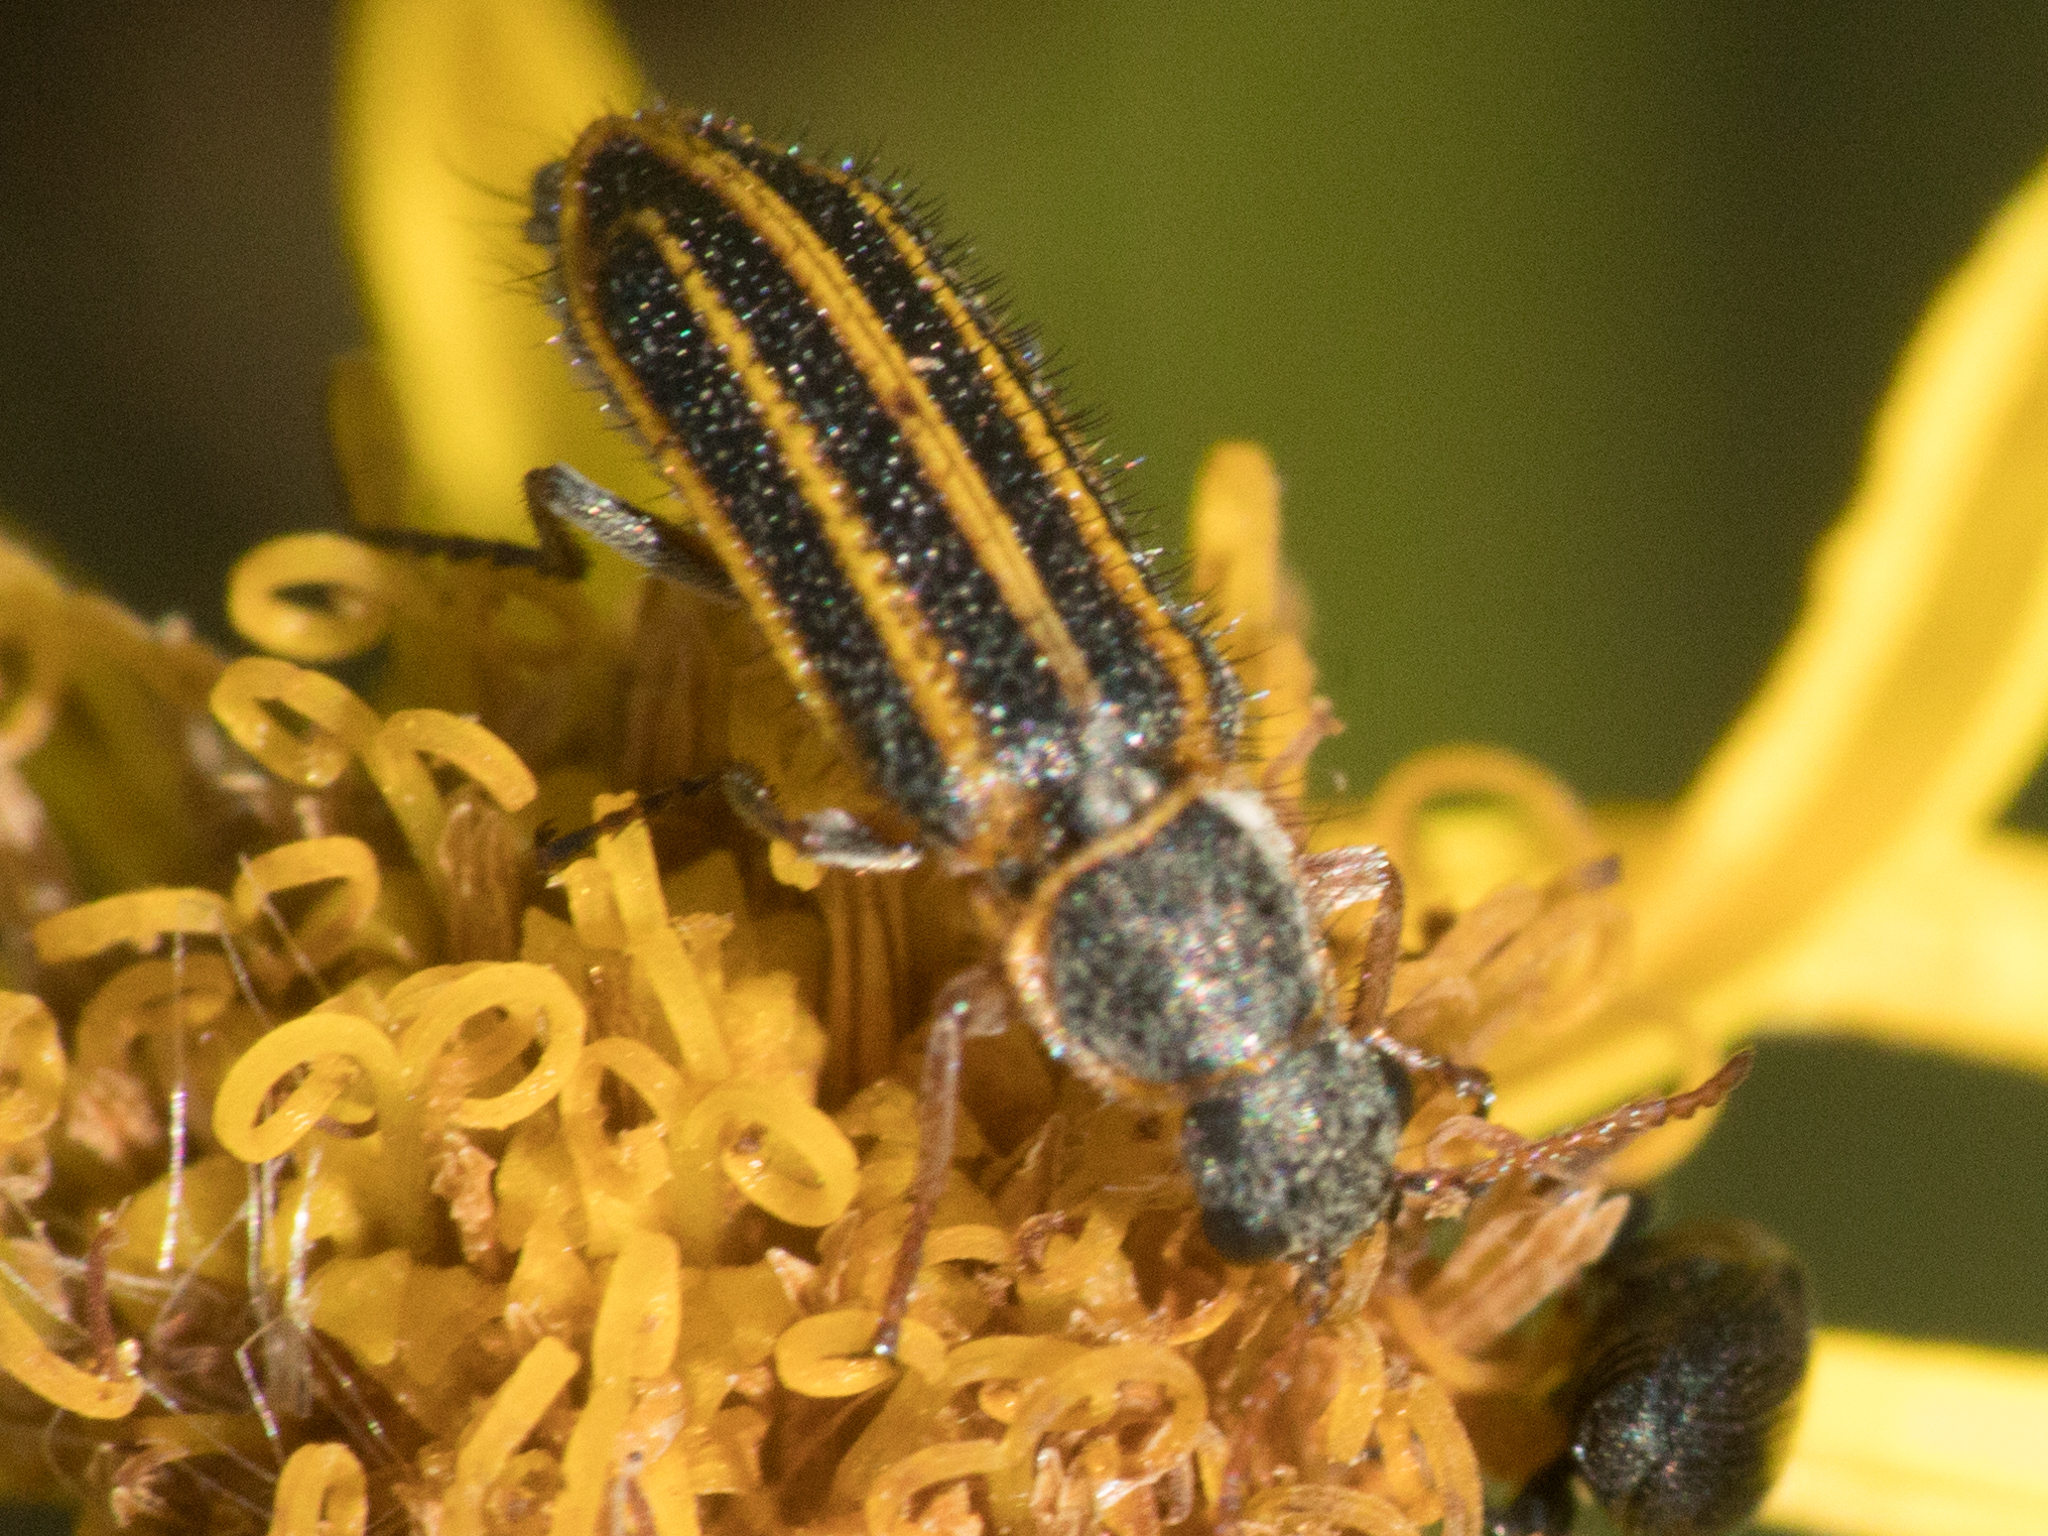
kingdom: Animalia
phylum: Arthropoda
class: Insecta
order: Coleoptera
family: Melyridae
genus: Astylus
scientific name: Astylus
